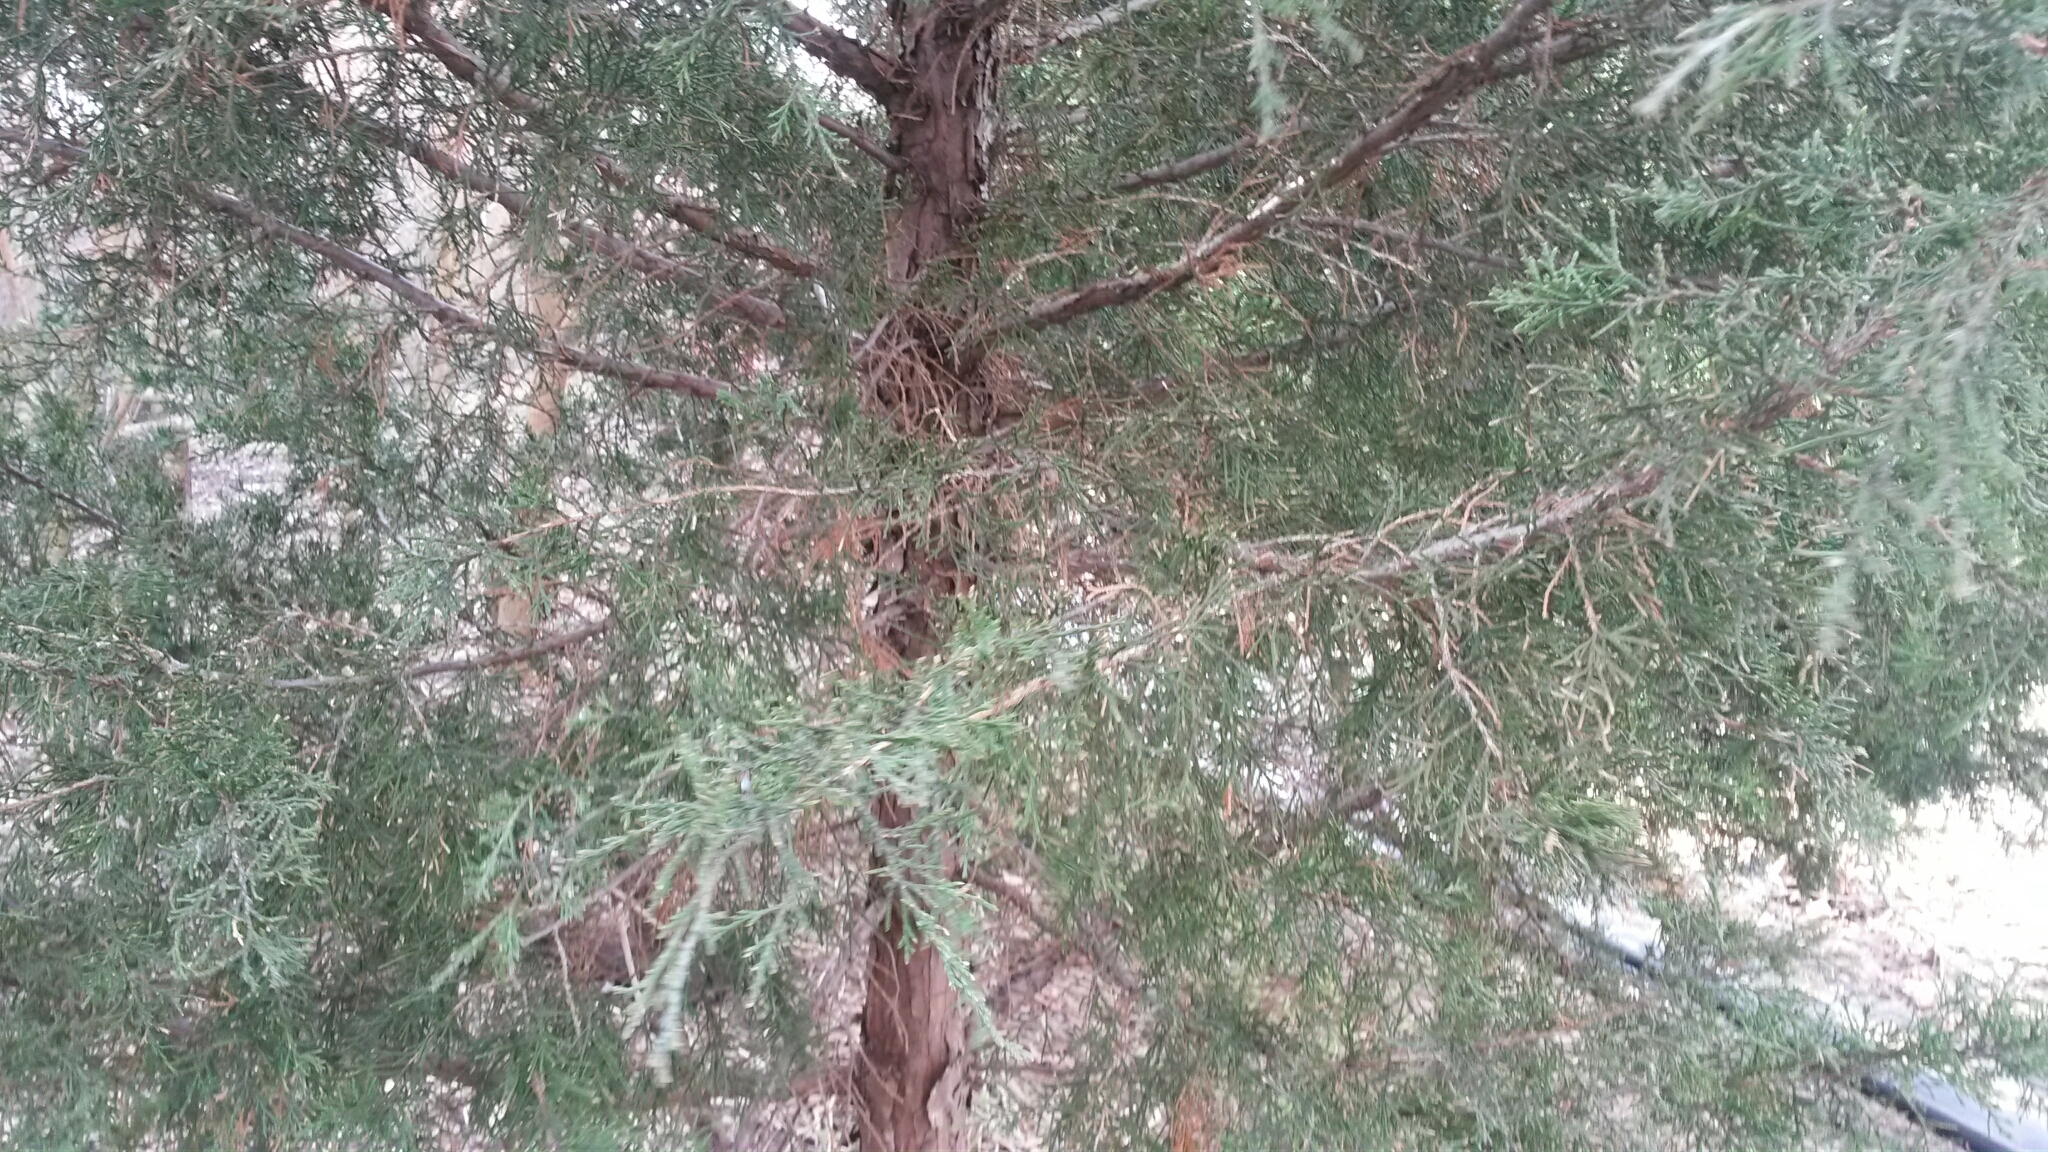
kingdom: Plantae
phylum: Tracheophyta
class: Pinopsida
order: Pinales
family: Cupressaceae
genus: Juniperus
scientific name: Juniperus virginiana
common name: Red juniper
